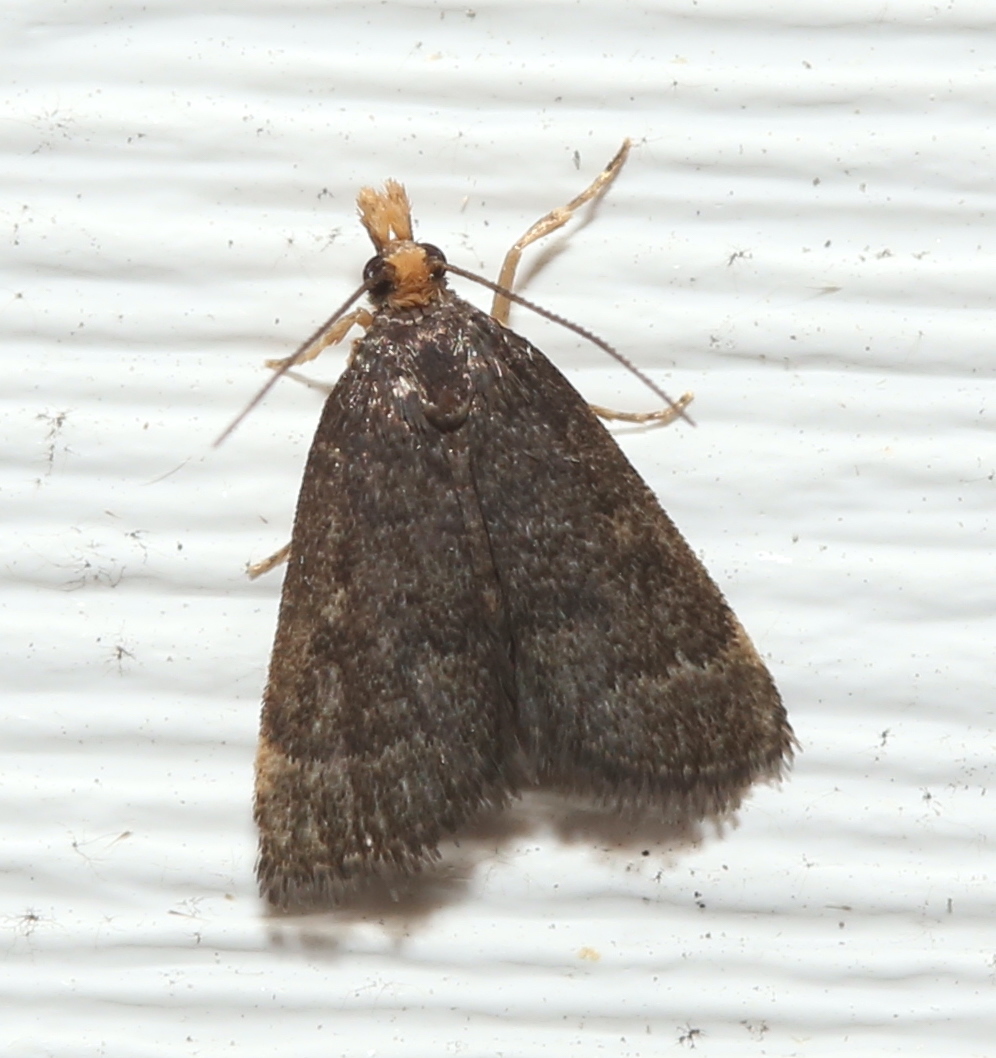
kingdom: Animalia
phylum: Arthropoda
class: Insecta
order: Lepidoptera
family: Crambidae
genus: Pyrausta
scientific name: Pyrausta merrickalis
